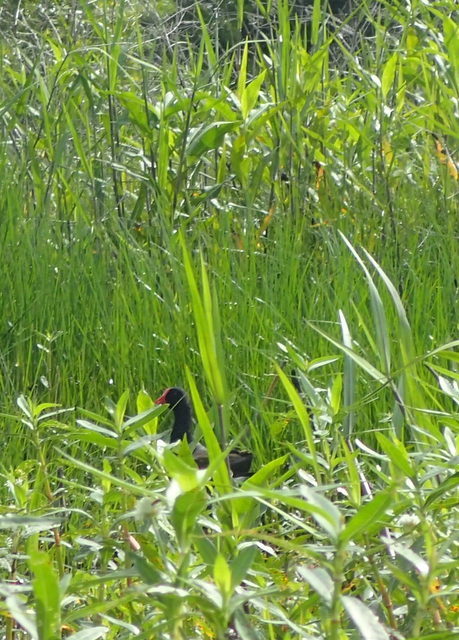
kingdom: Animalia
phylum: Chordata
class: Aves
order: Gruiformes
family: Rallidae
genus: Gallinula
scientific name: Gallinula chloropus
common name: Common moorhen
